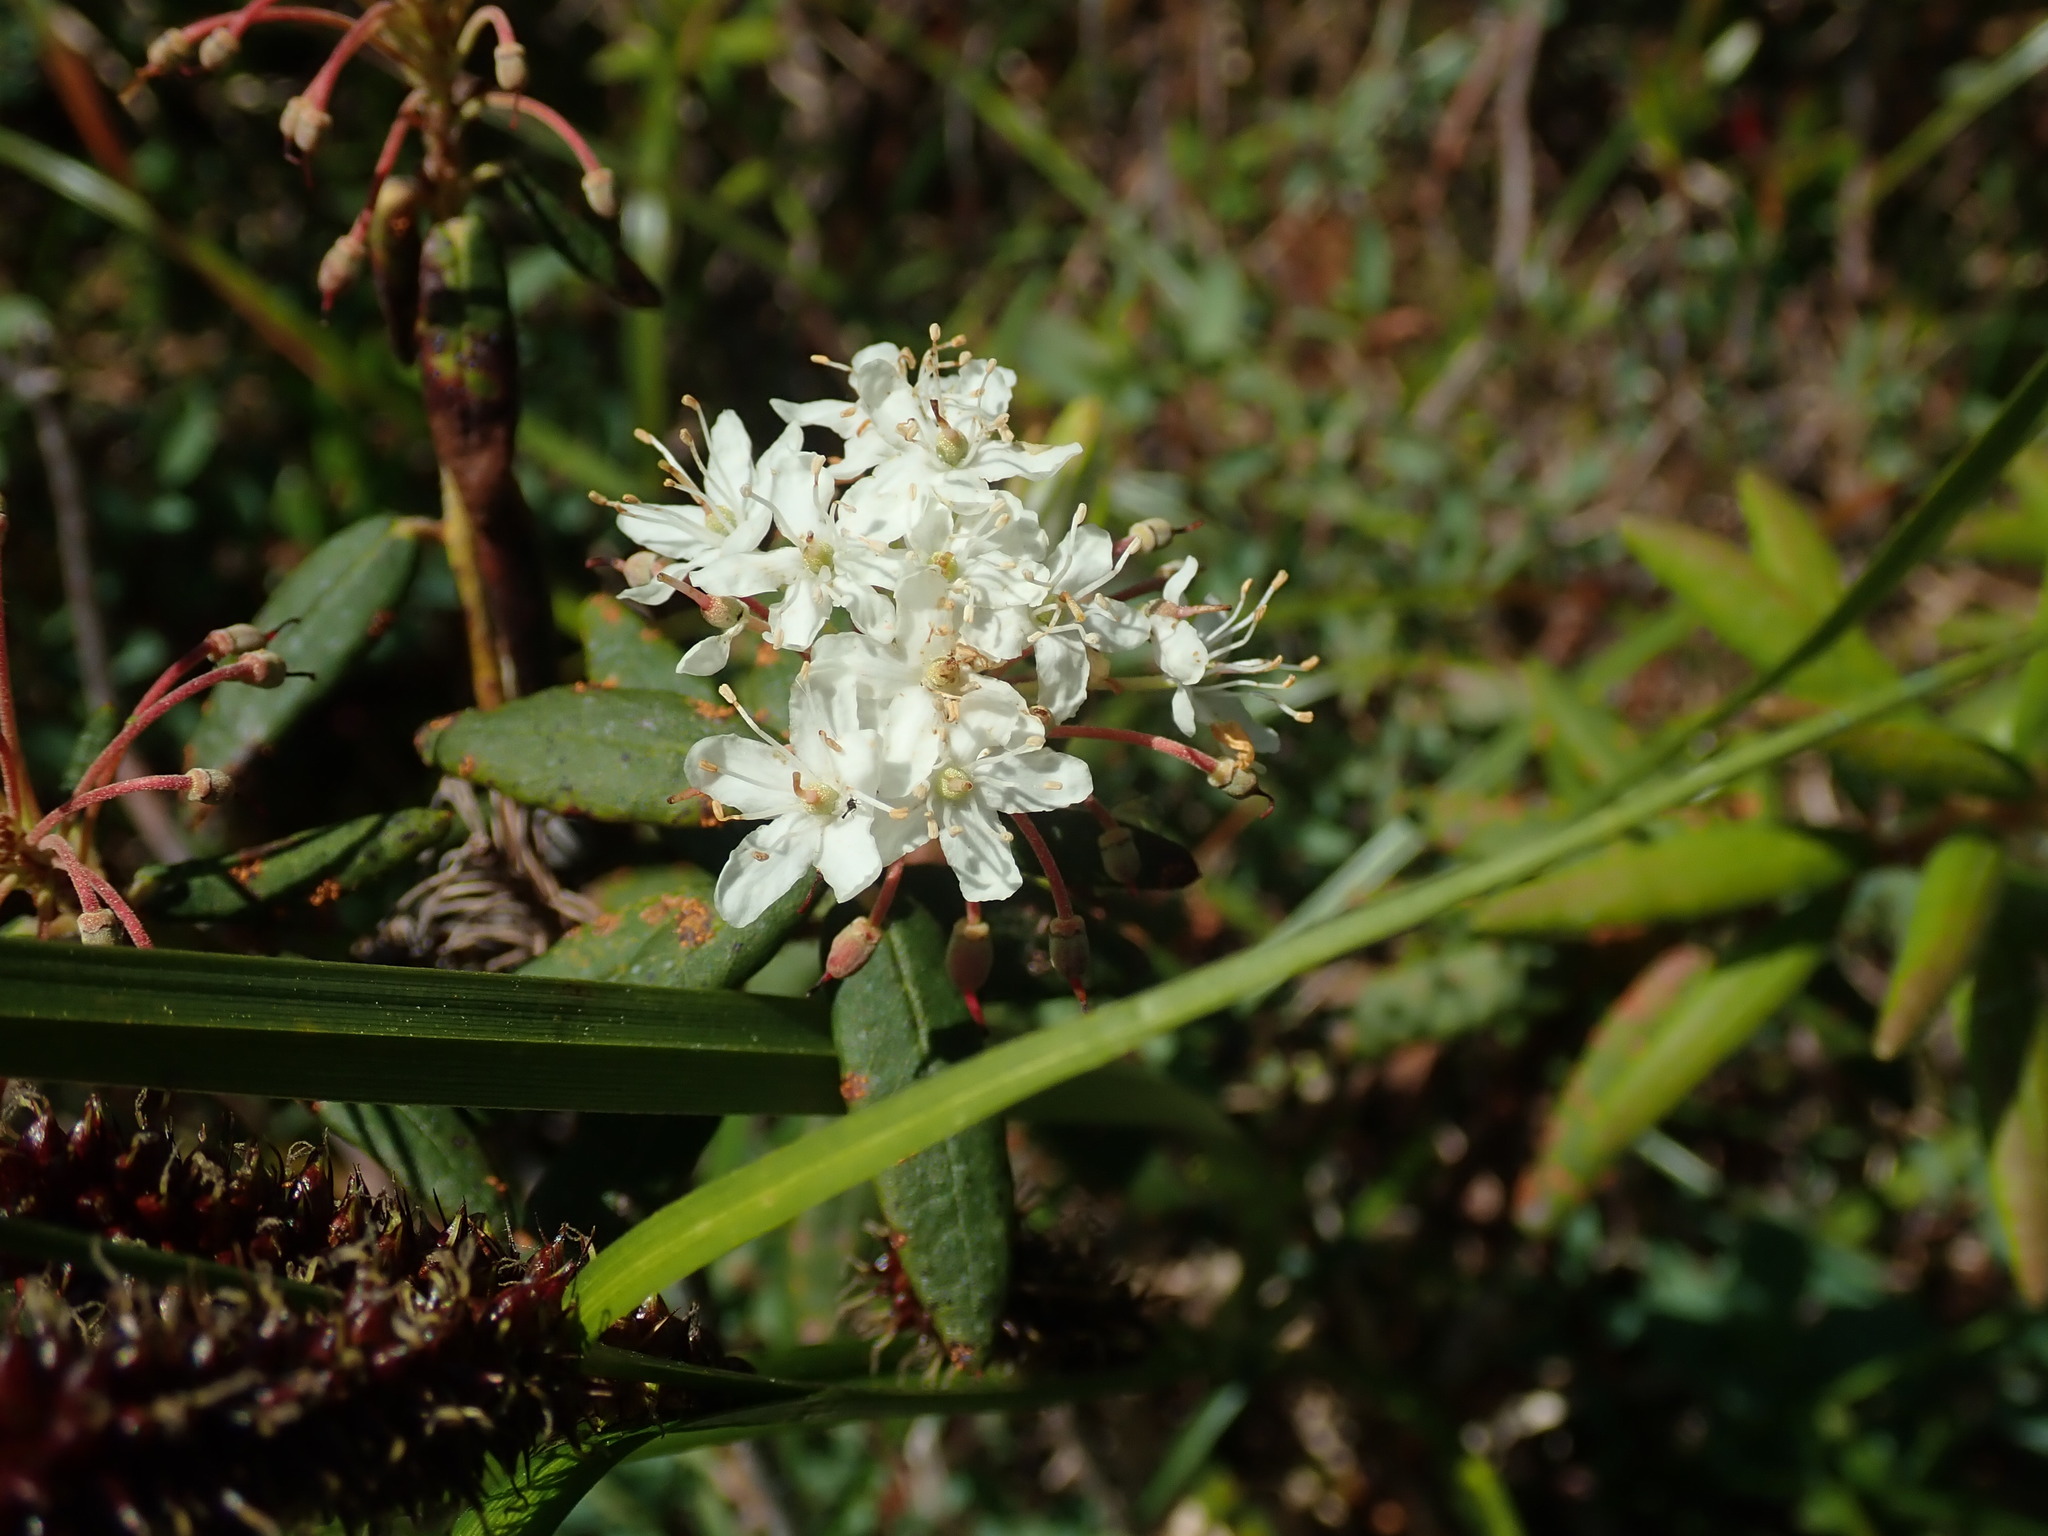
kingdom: Plantae
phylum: Tracheophyta
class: Magnoliopsida
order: Ericales
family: Ericaceae
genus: Rhododendron
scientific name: Rhododendron groenlandicum
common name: Bog labrador tea
